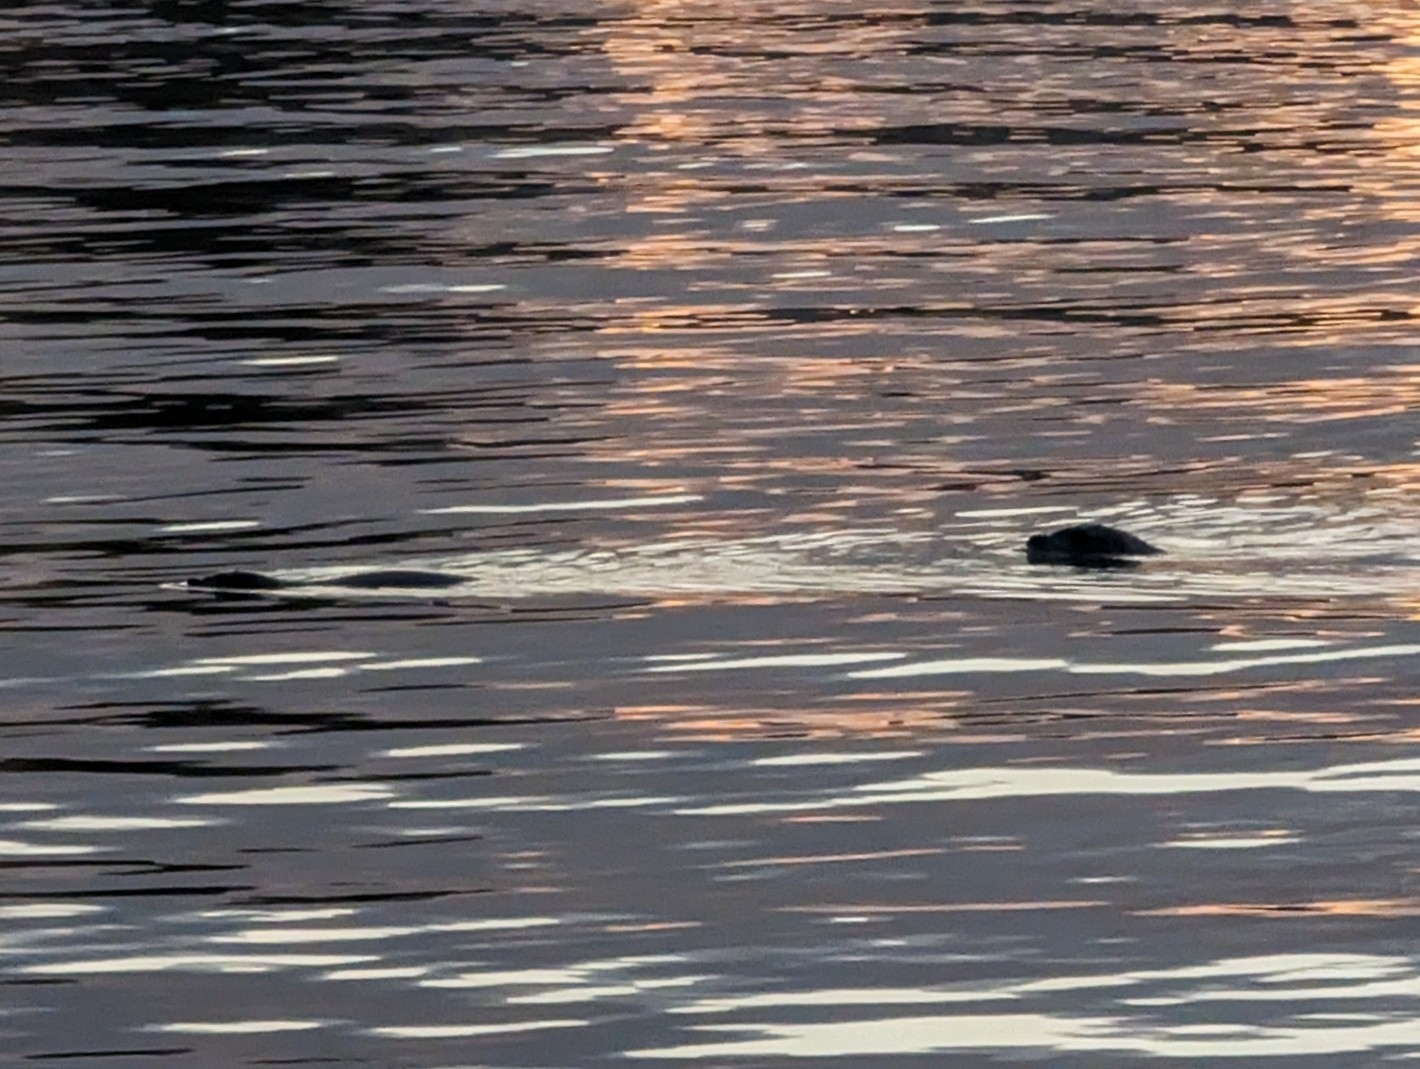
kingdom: Animalia
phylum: Chordata
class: Mammalia
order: Carnivora
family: Phocidae
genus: Phoca
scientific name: Phoca vitulina
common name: Harbor seal
